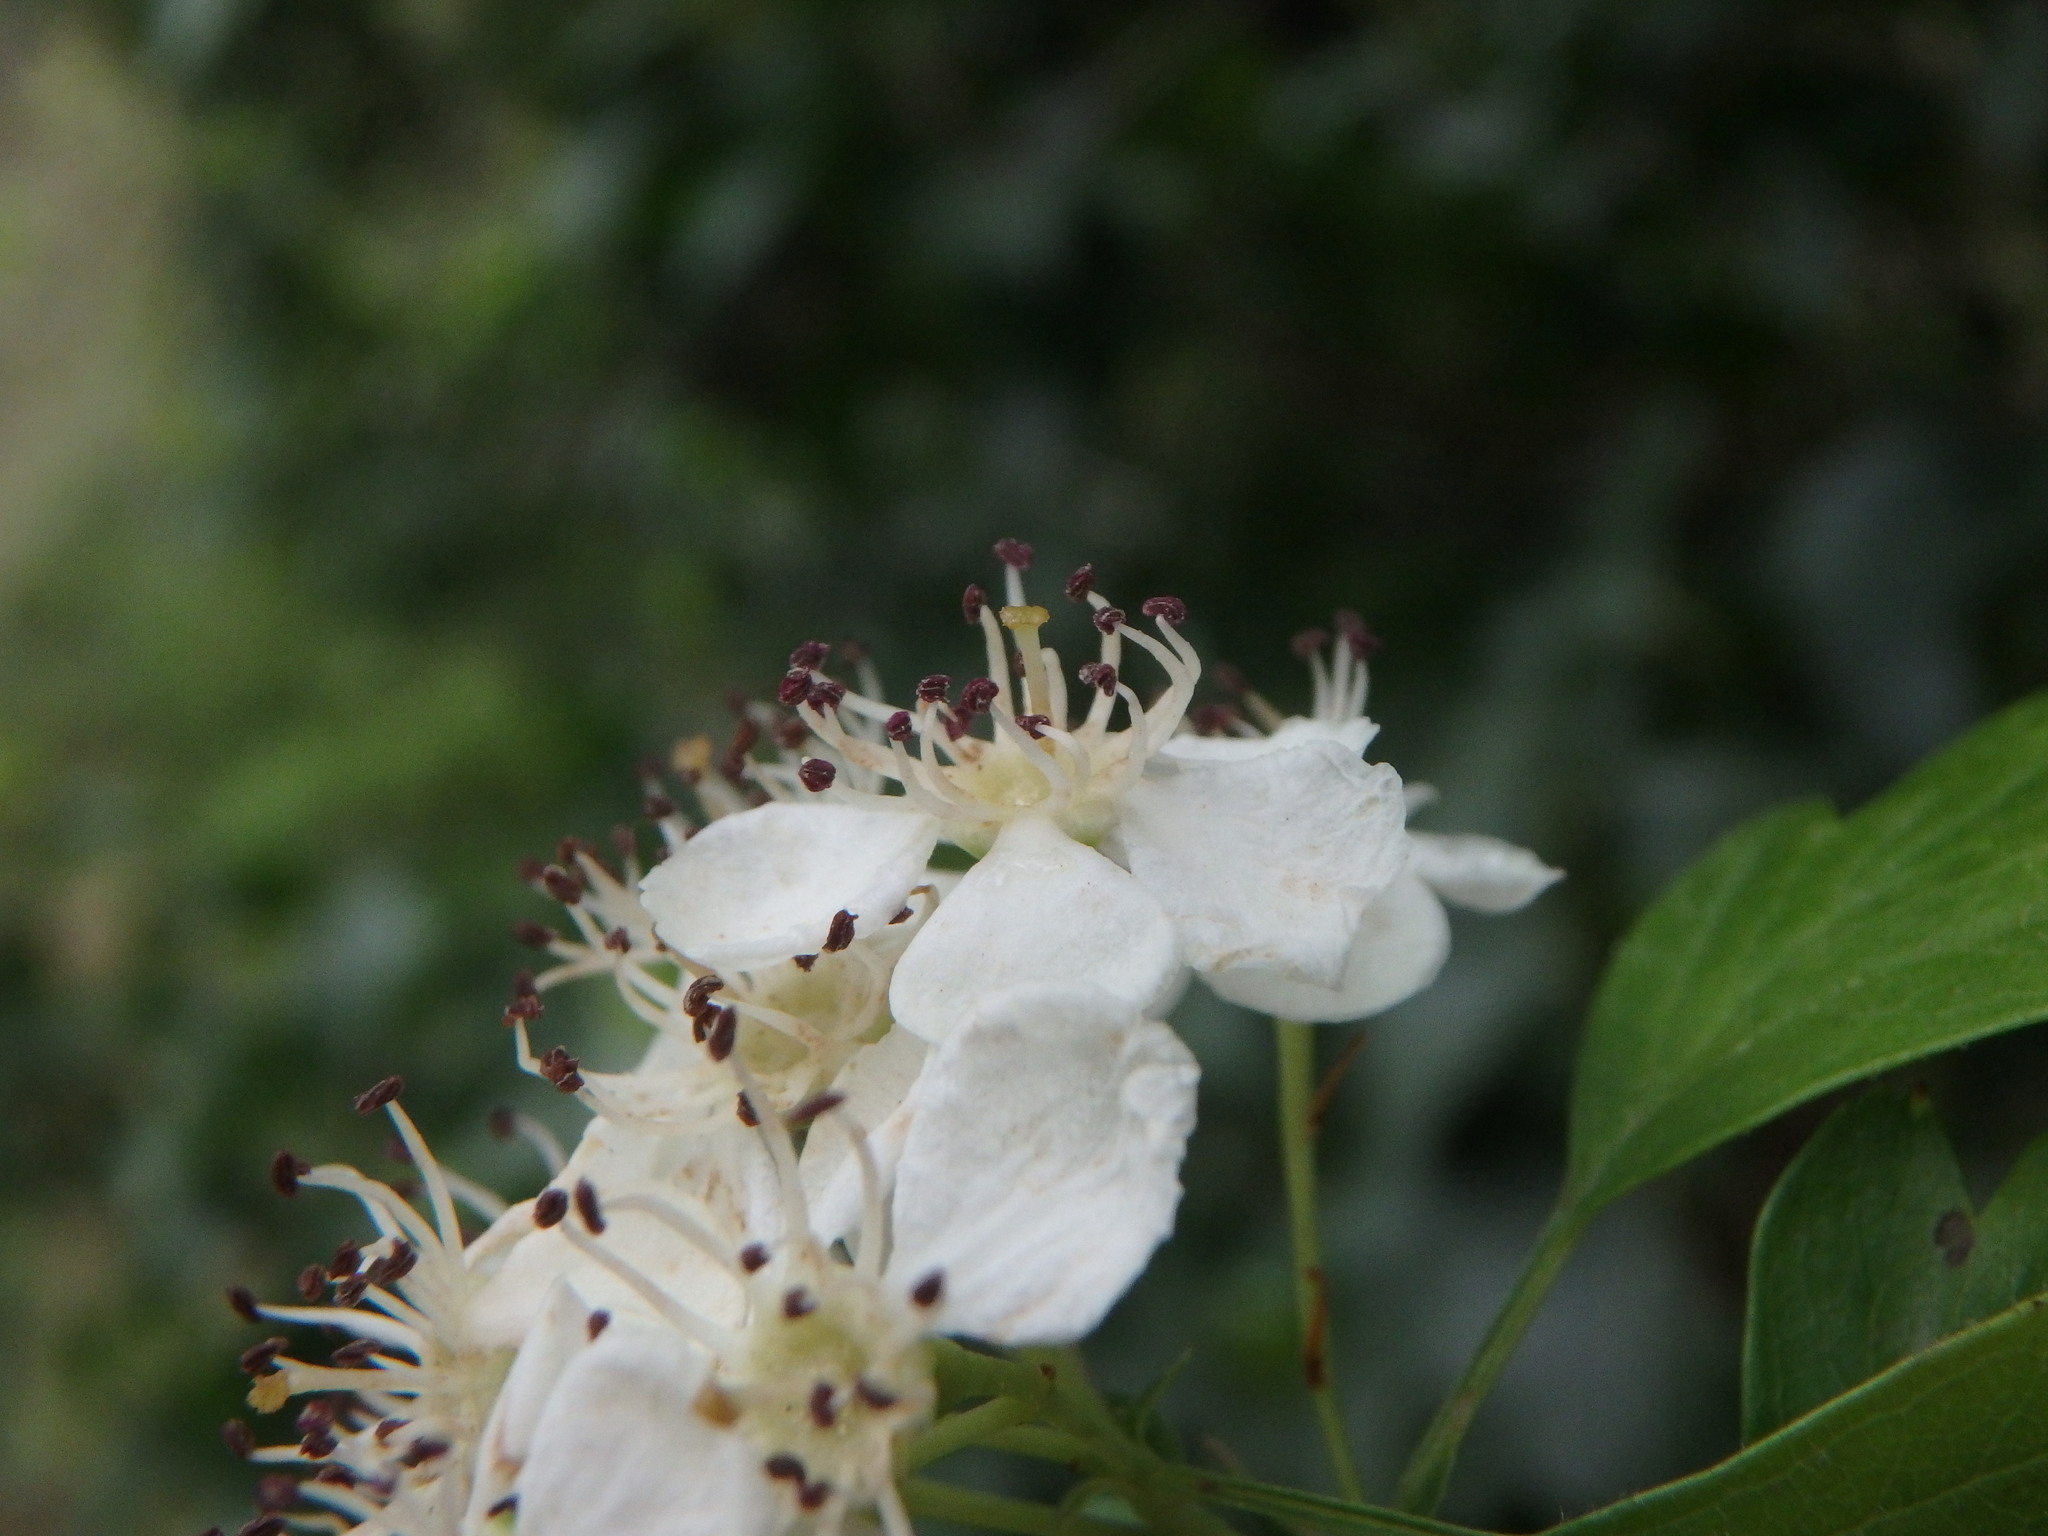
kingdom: Plantae
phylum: Tracheophyta
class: Magnoliopsida
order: Rosales
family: Rosaceae
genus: Crataegus
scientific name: Crataegus monogyna
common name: Hawthorn
